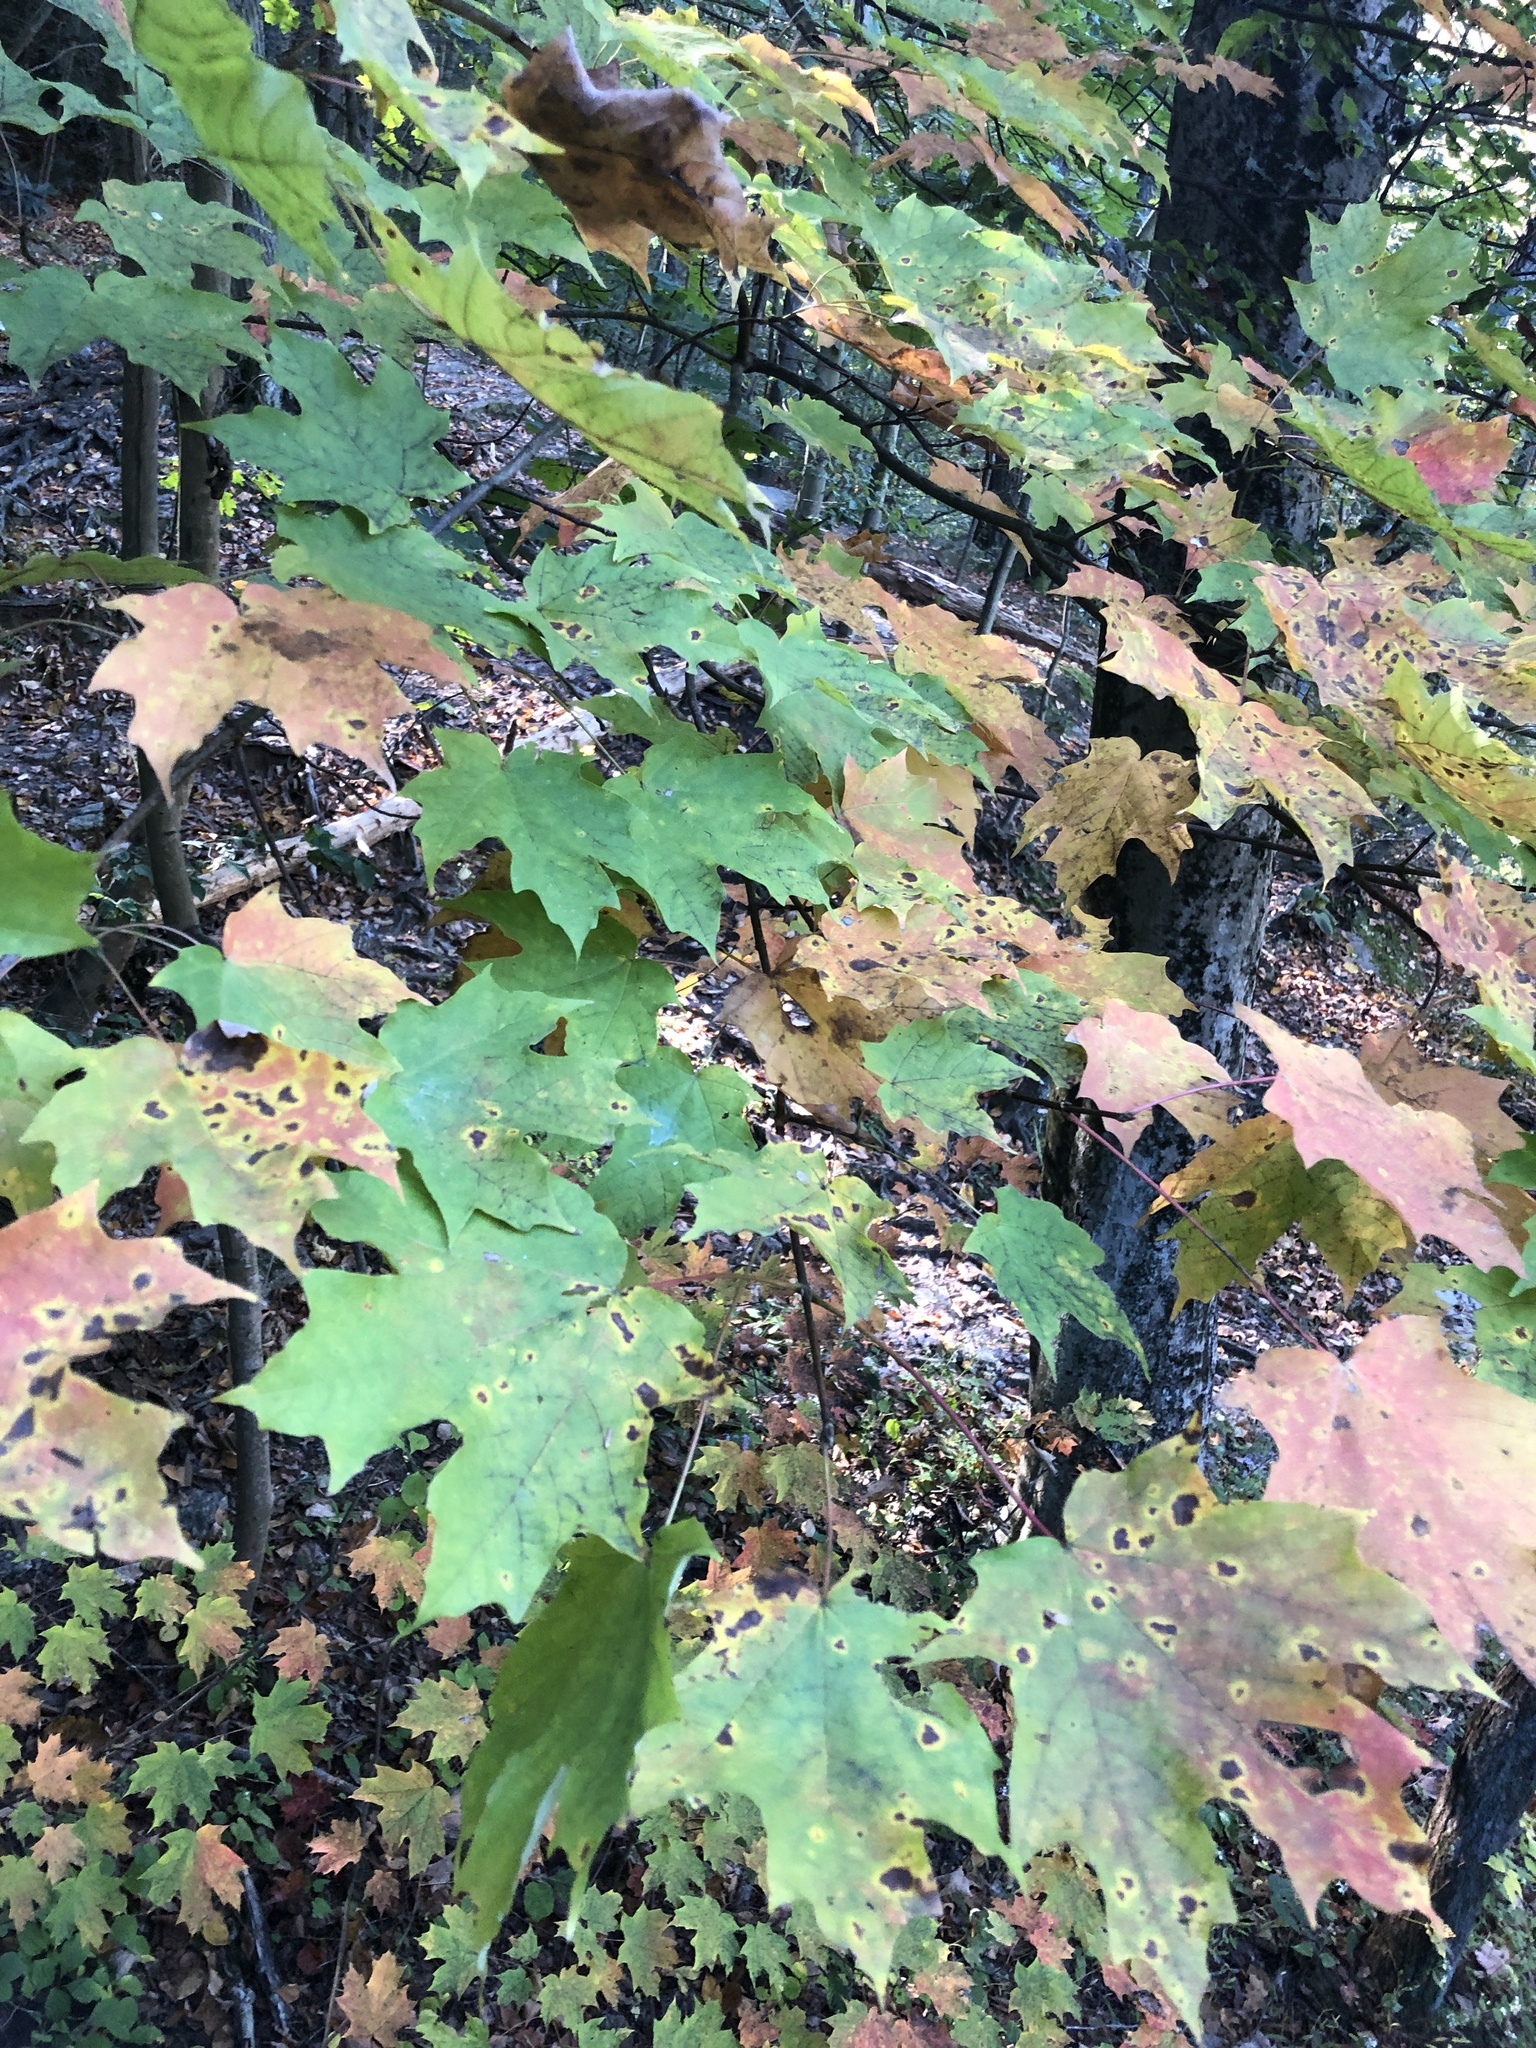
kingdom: Plantae
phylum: Tracheophyta
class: Magnoliopsida
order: Sapindales
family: Sapindaceae
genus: Acer
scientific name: Acer saccharum
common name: Sugar maple
